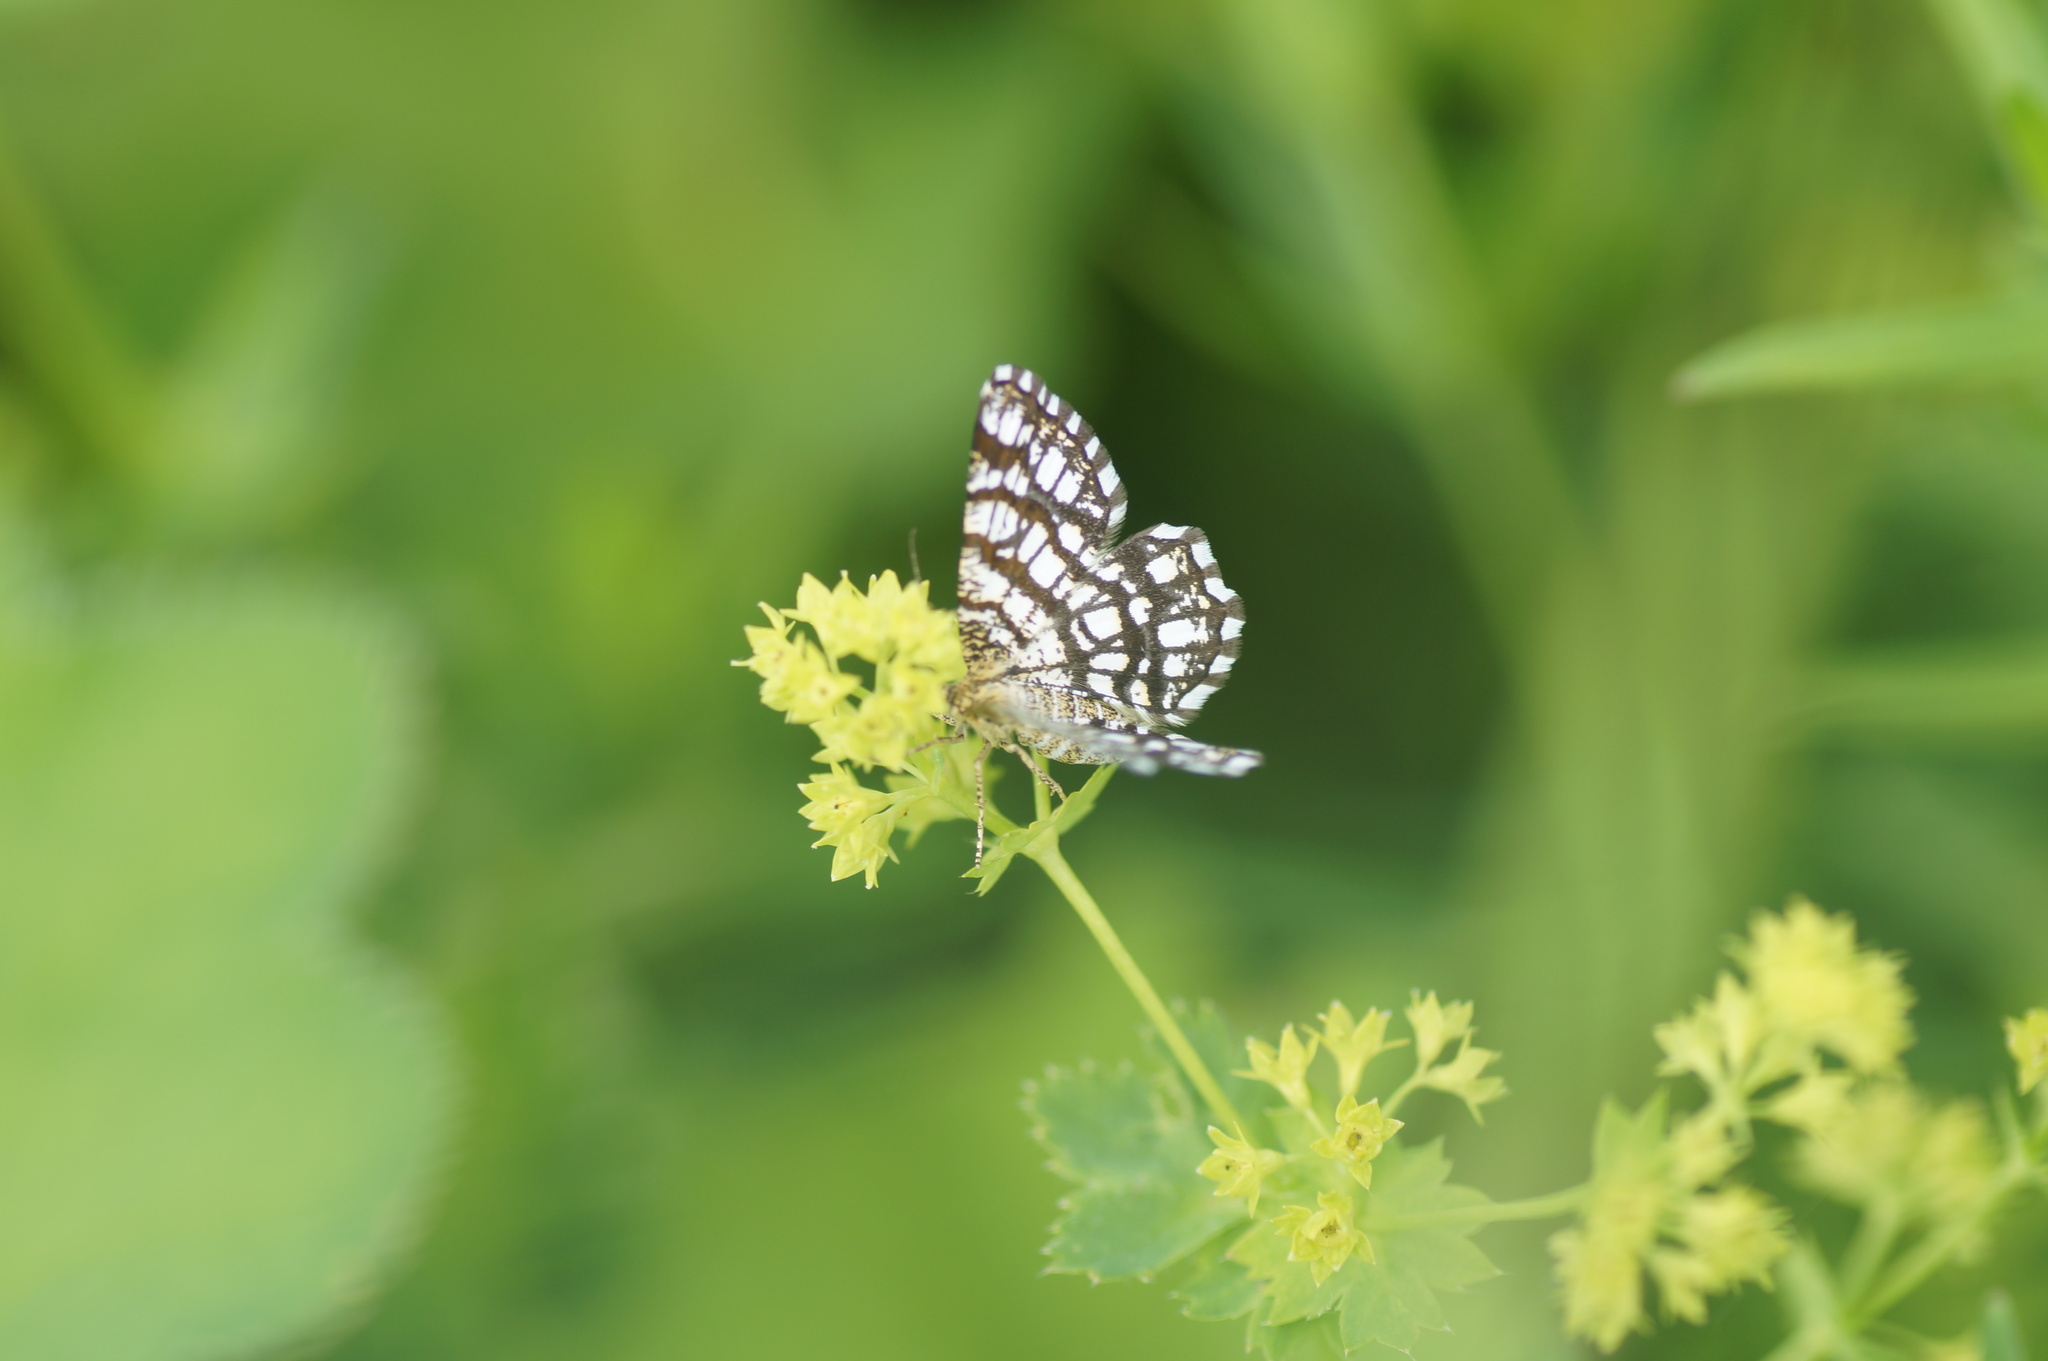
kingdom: Animalia
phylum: Arthropoda
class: Insecta
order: Lepidoptera
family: Geometridae
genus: Chiasmia
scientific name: Chiasmia clathrata
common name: Latticed heath
